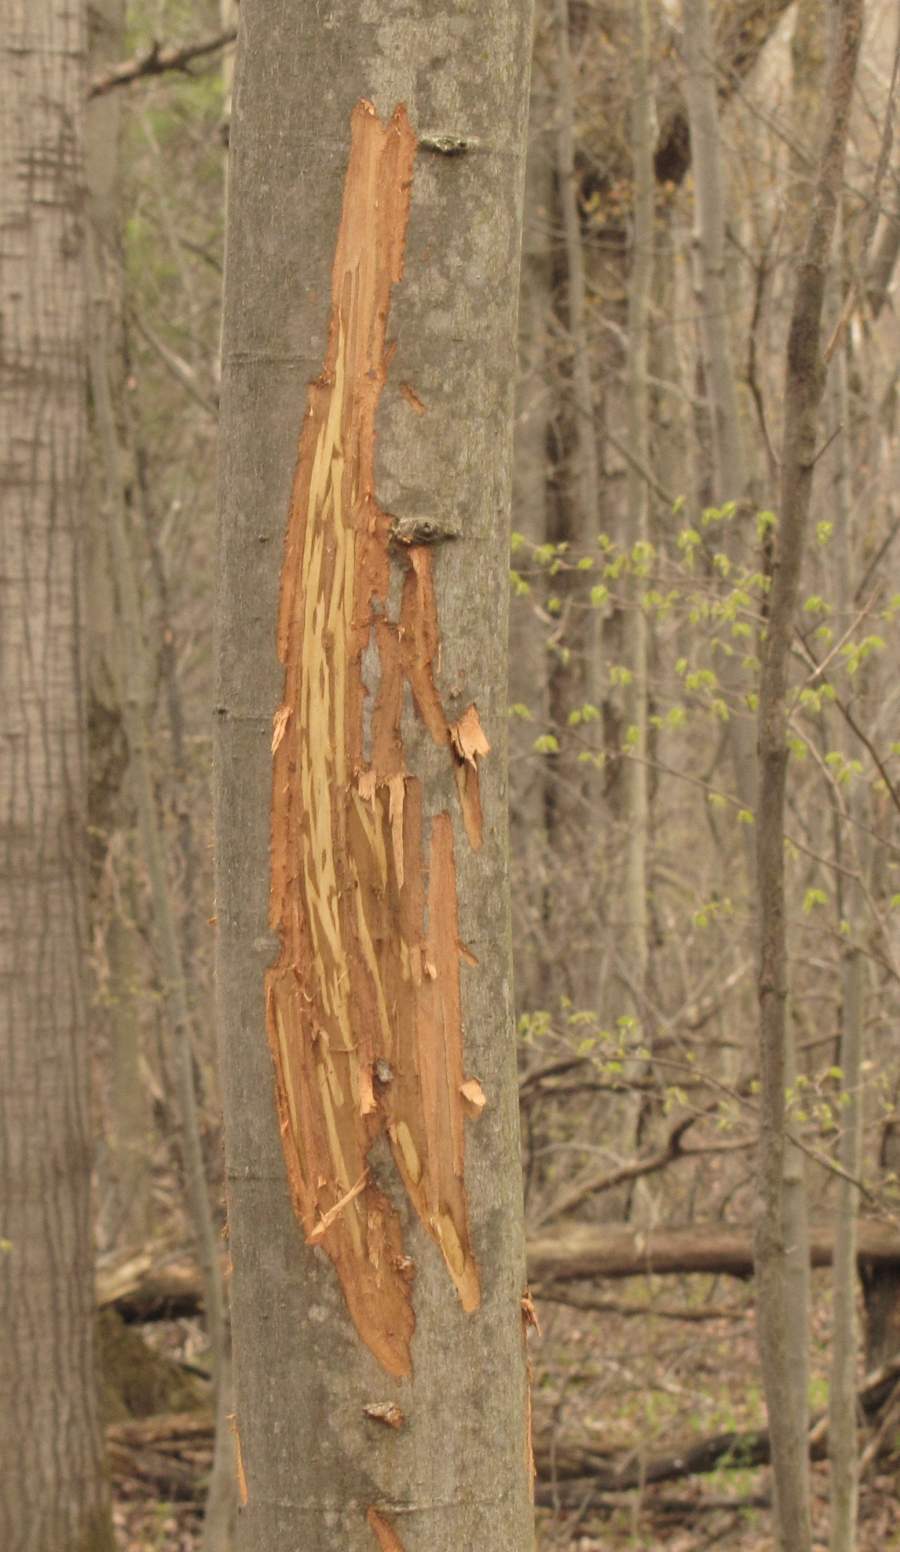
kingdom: Animalia
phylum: Chordata
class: Mammalia
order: Artiodactyla
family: Cervidae
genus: Alces
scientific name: Alces alces
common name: Moose
